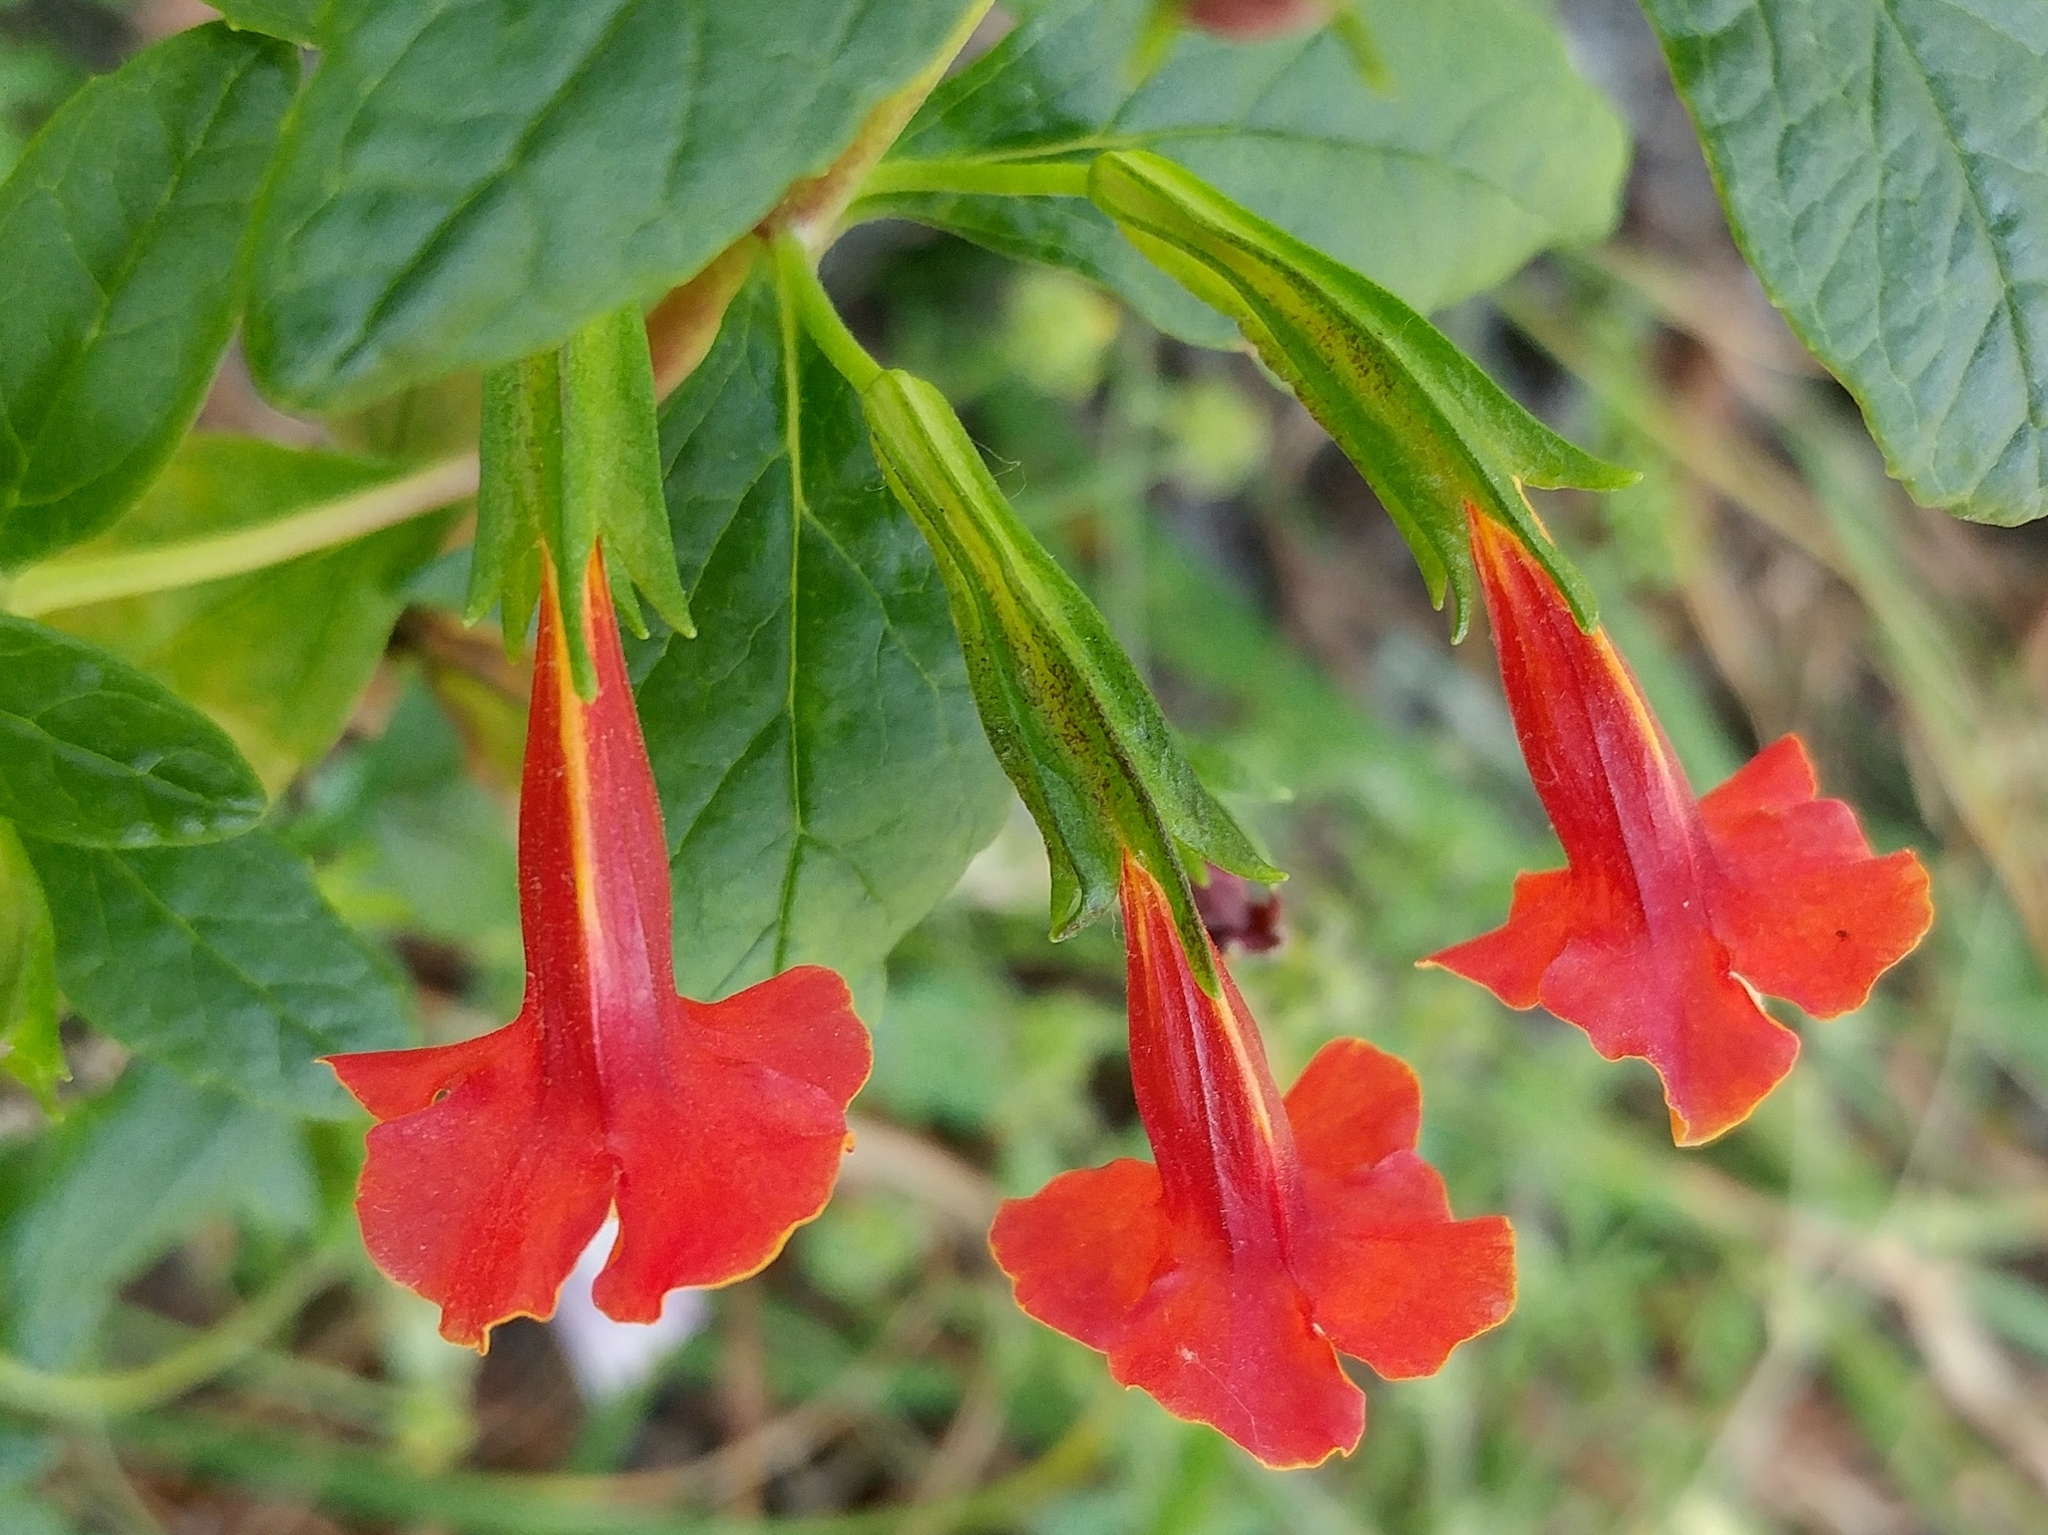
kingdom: Plantae
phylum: Tracheophyta
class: Magnoliopsida
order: Lamiales
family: Phrymaceae
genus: Diplacus
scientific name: Diplacus parviflorus
